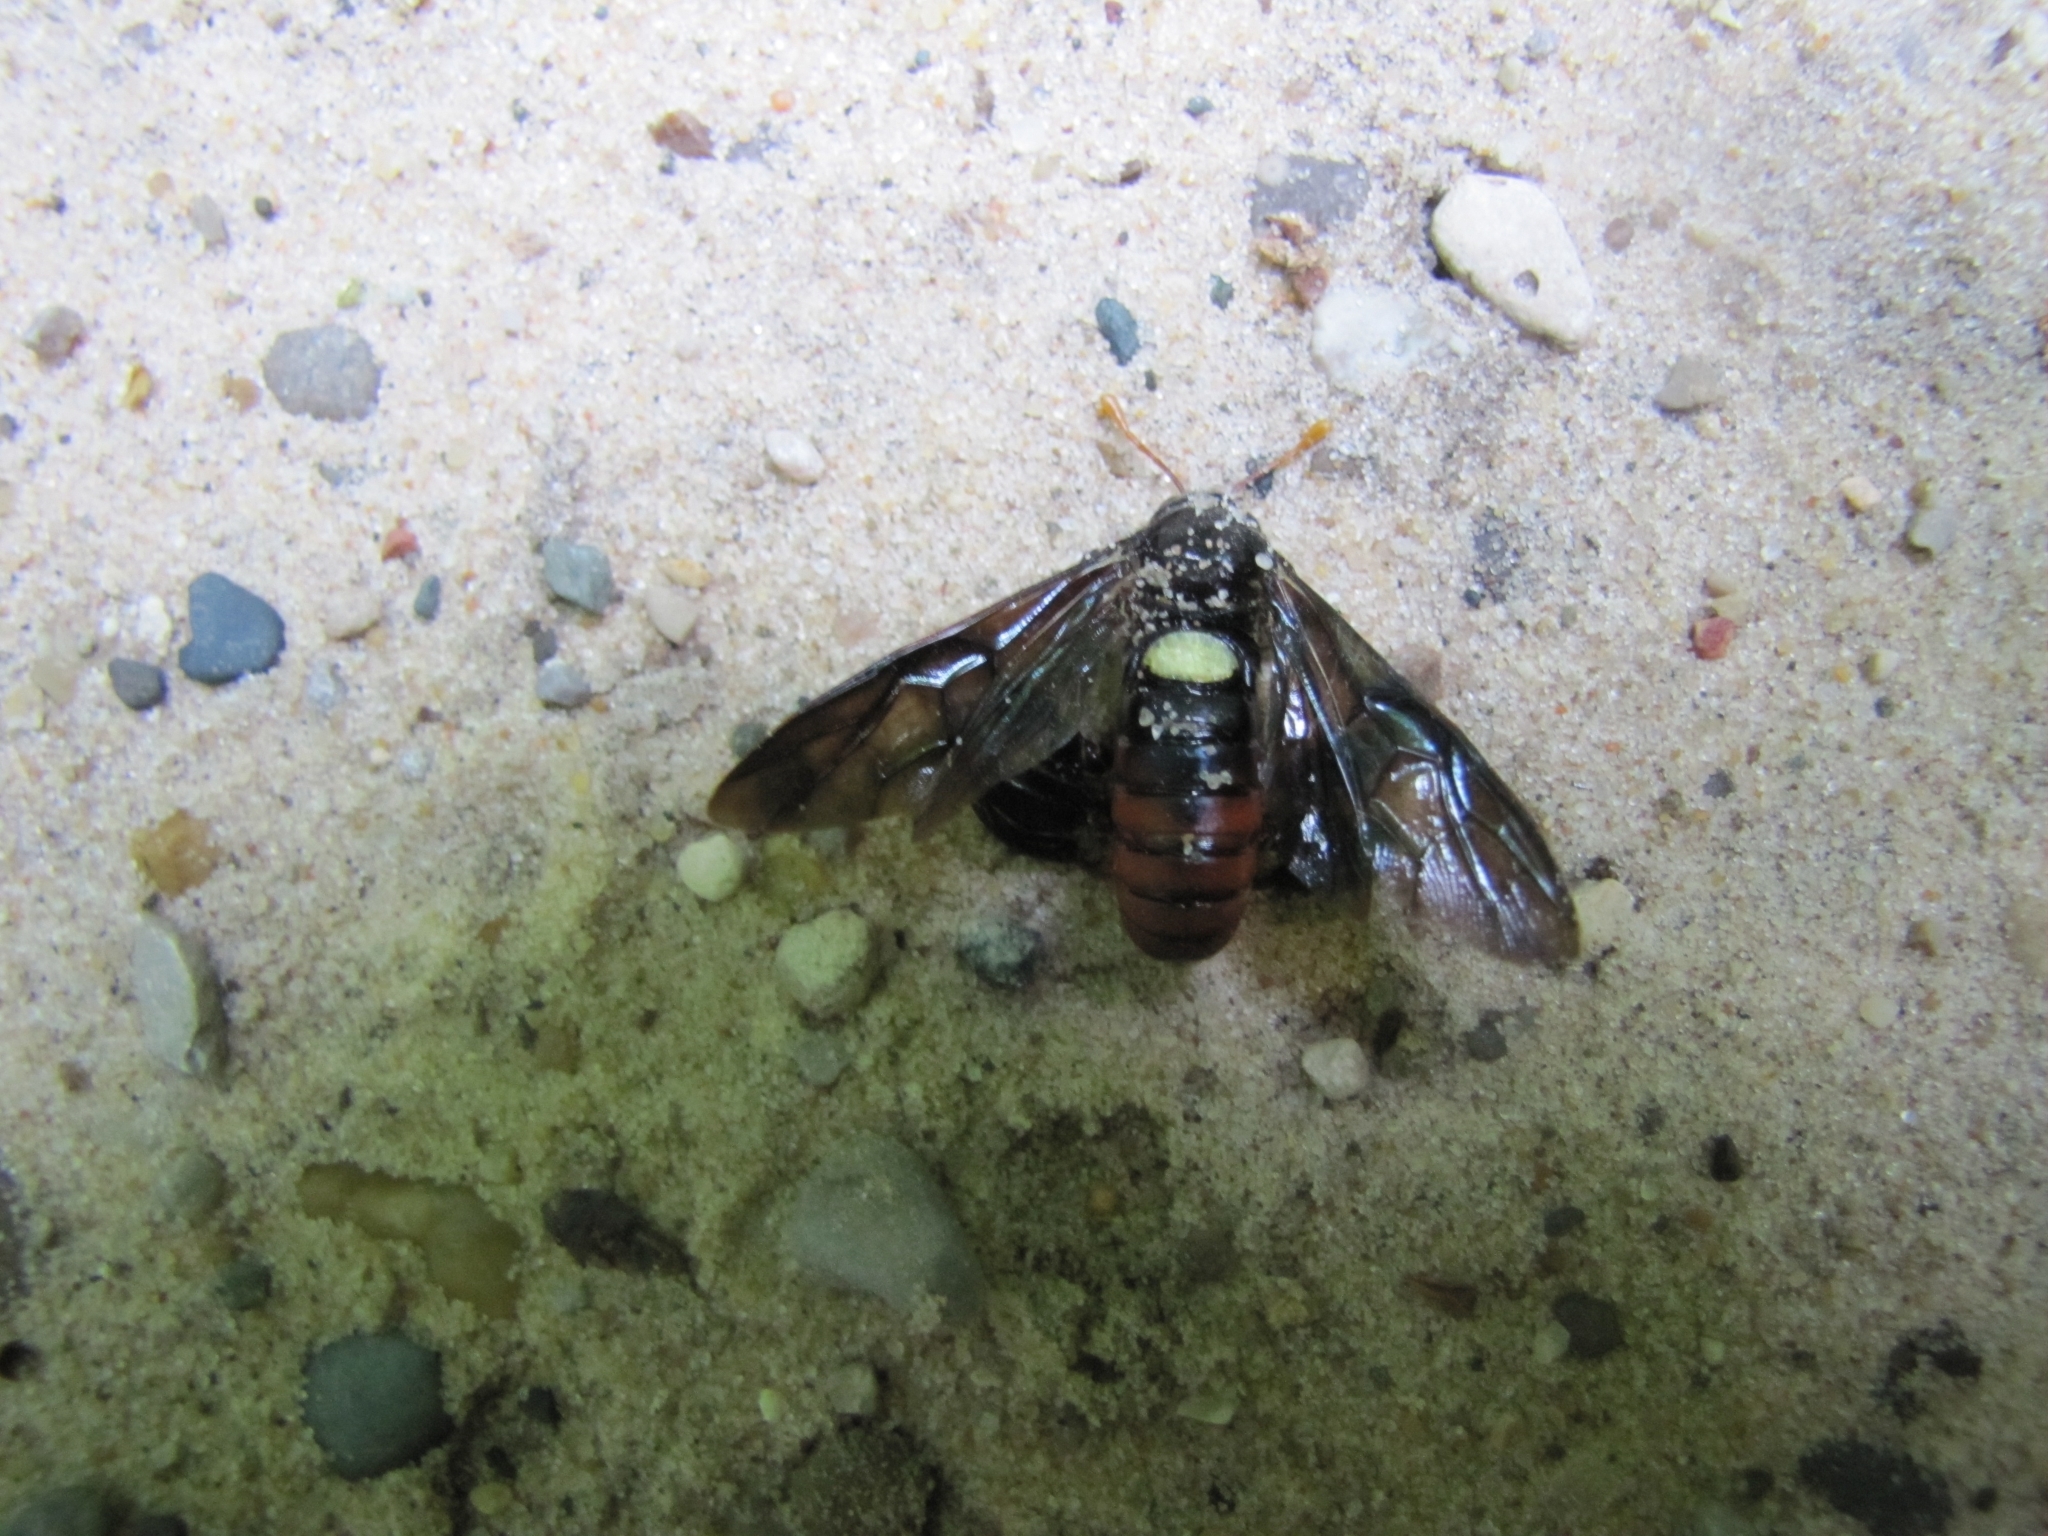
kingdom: Animalia
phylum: Arthropoda
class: Insecta
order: Hymenoptera
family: Cimbicidae
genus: Cimbex
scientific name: Cimbex americana
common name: Elm sawfly
